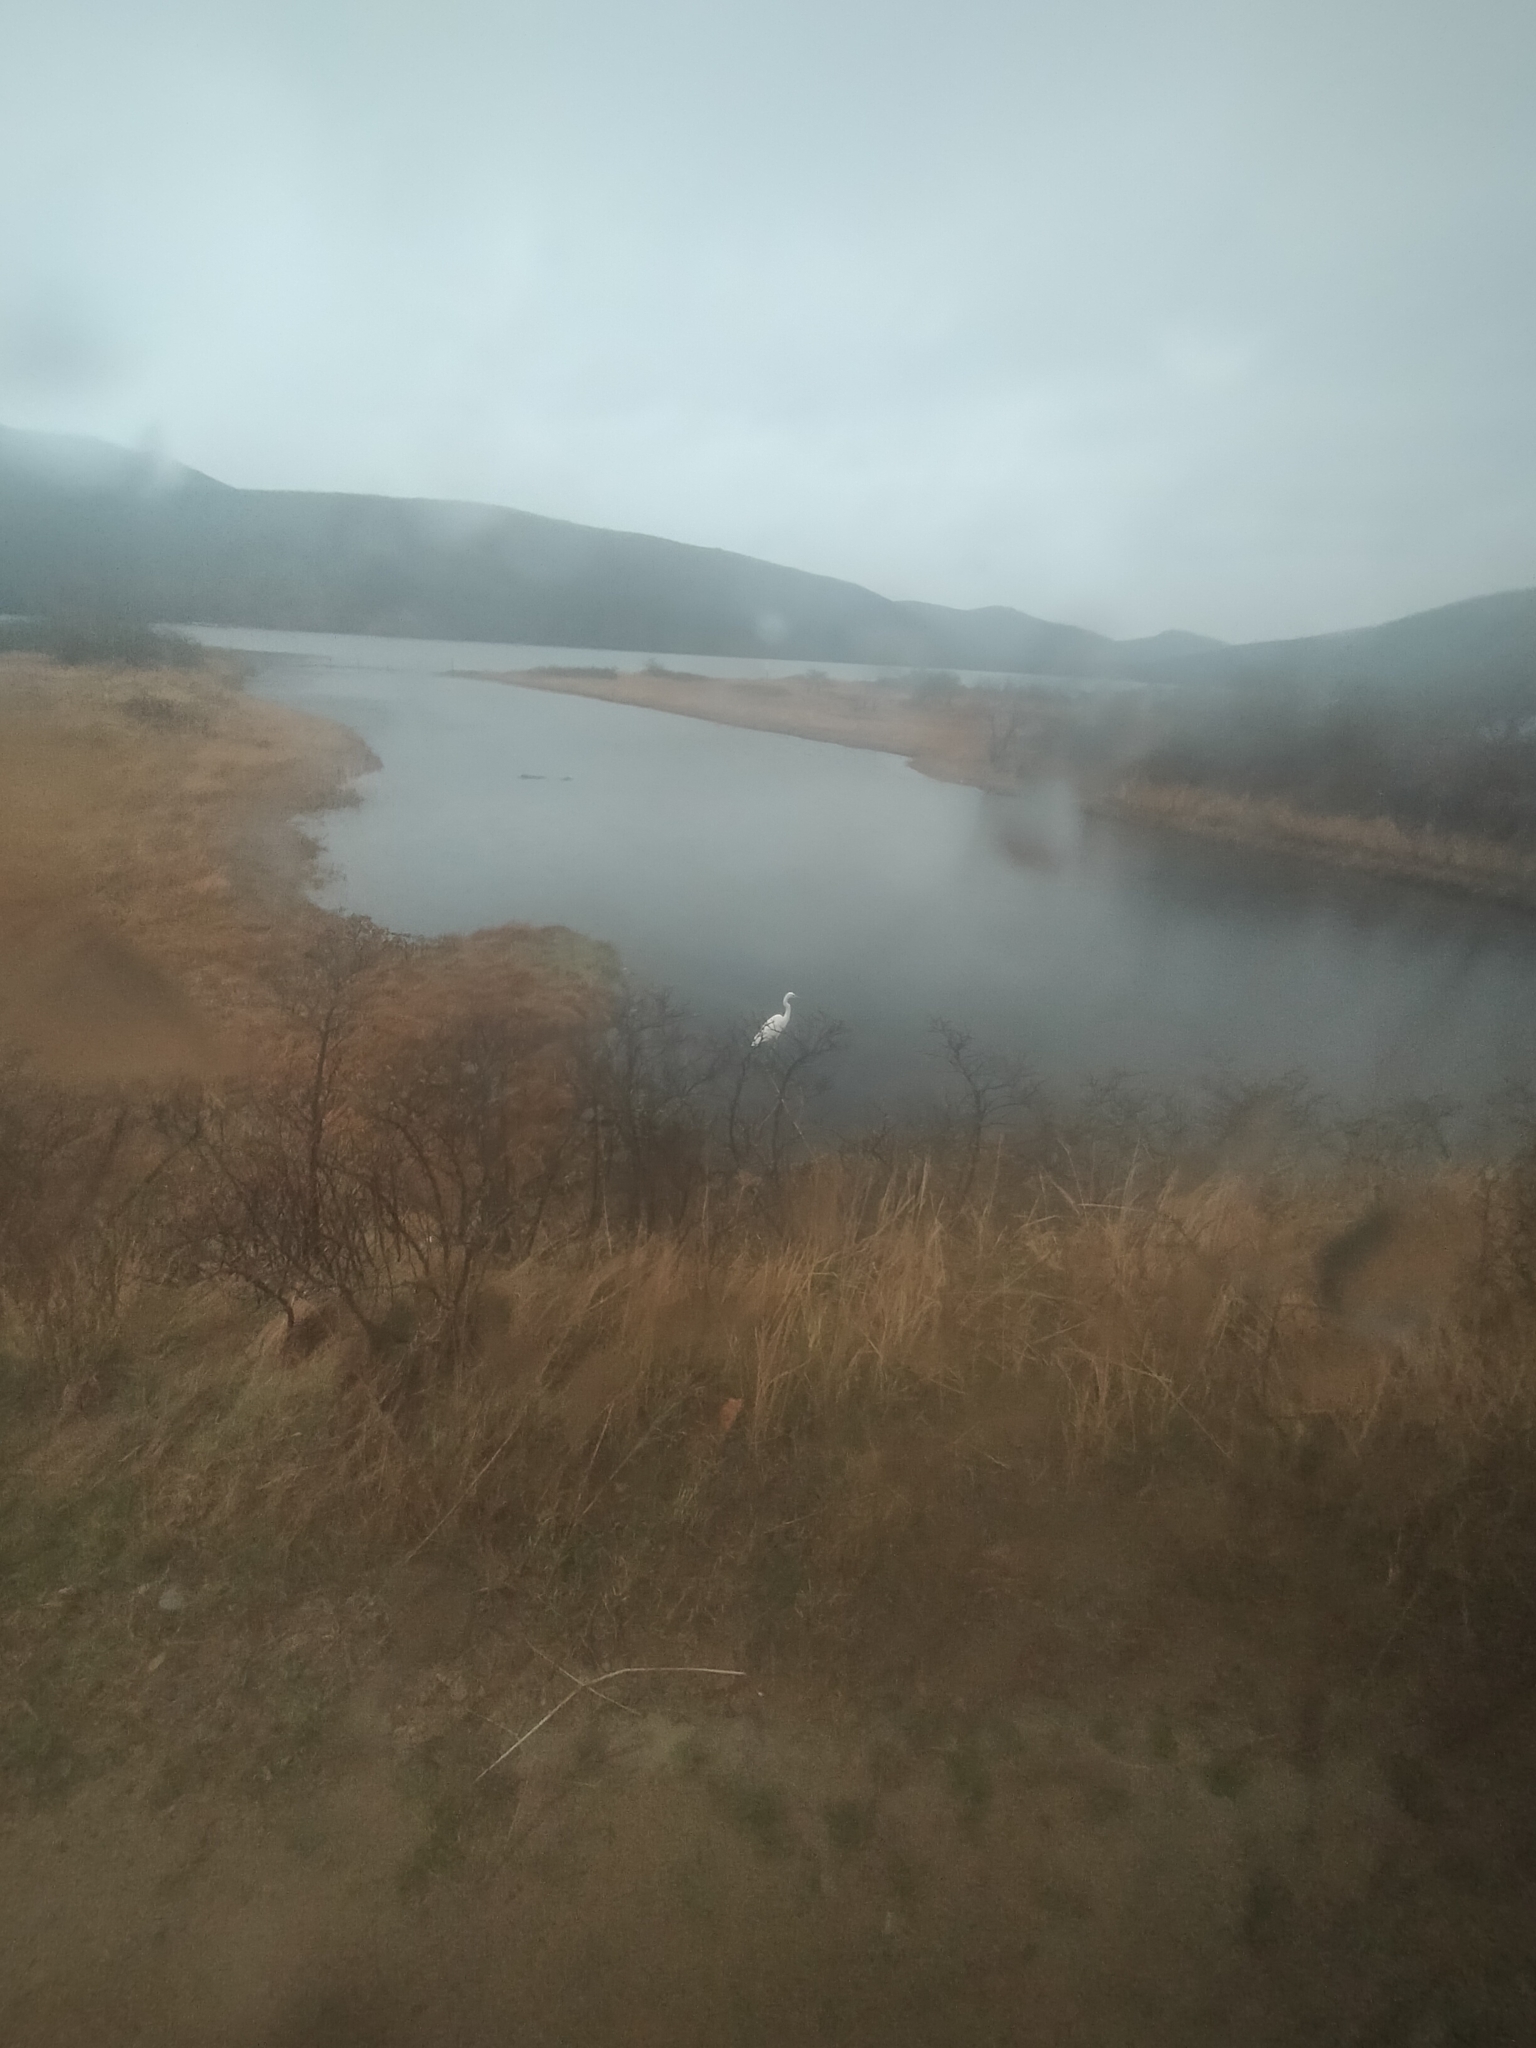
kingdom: Animalia
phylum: Chordata
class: Aves
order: Pelecaniformes
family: Ardeidae
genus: Ardea
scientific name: Ardea alba
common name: Great egret
